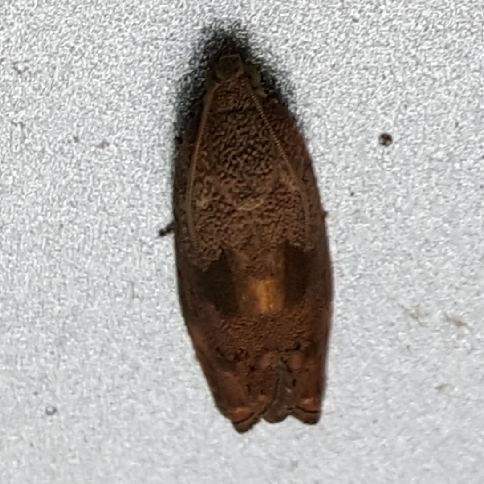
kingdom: Animalia
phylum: Arthropoda
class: Insecta
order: Lepidoptera
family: Tortricidae
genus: Cydia
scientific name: Cydia latiferreana
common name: Filbertworm moth
